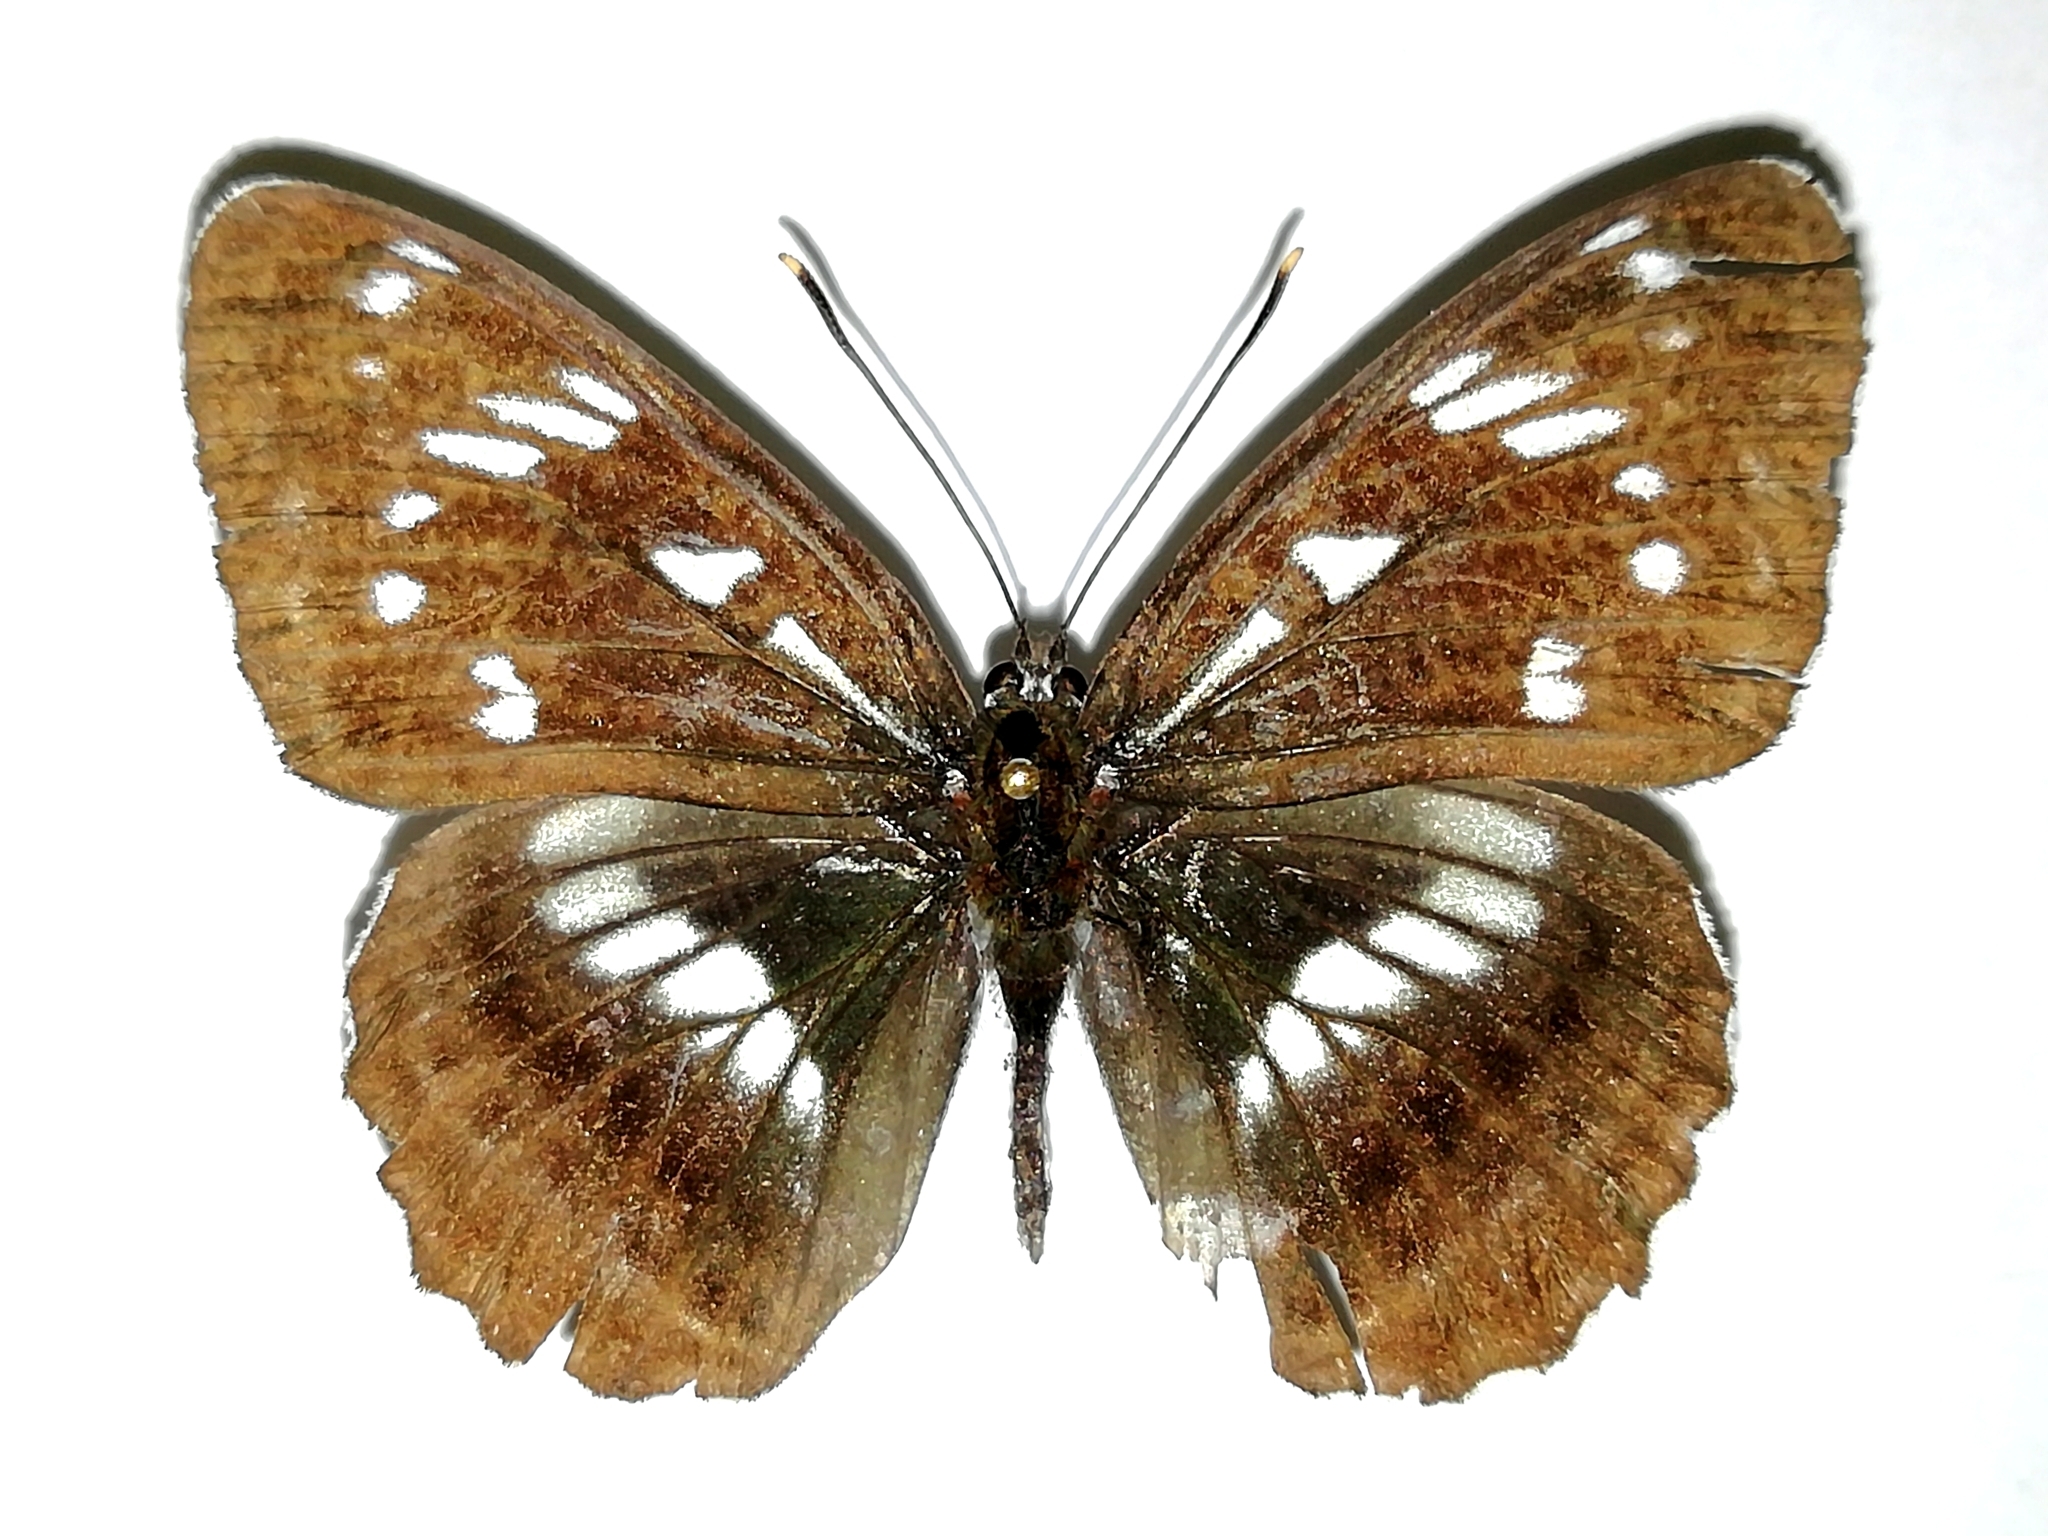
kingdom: Animalia
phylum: Arthropoda
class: Insecta
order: Lepidoptera
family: Nymphalidae
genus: Limenitis
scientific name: Limenitis helmanni
